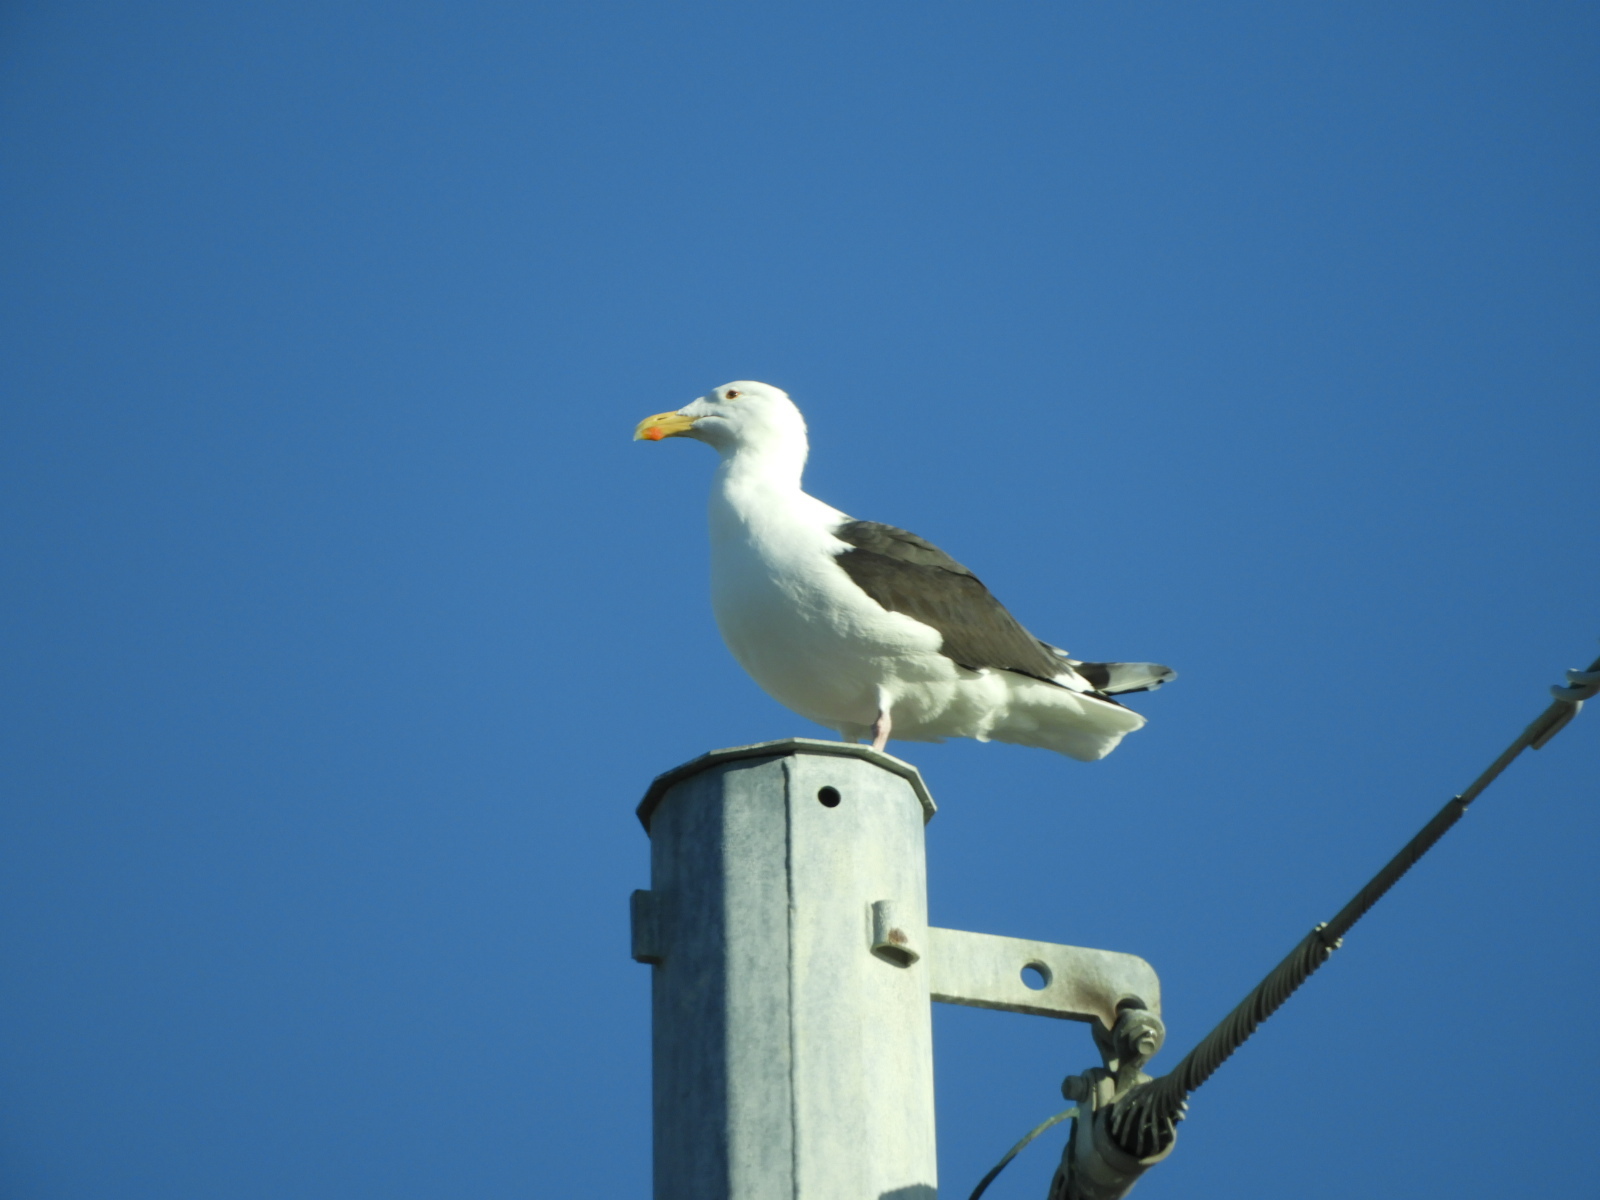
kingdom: Animalia
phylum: Chordata
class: Aves
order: Charadriiformes
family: Laridae
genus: Larus
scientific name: Larus marinus
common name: Great black-backed gull
